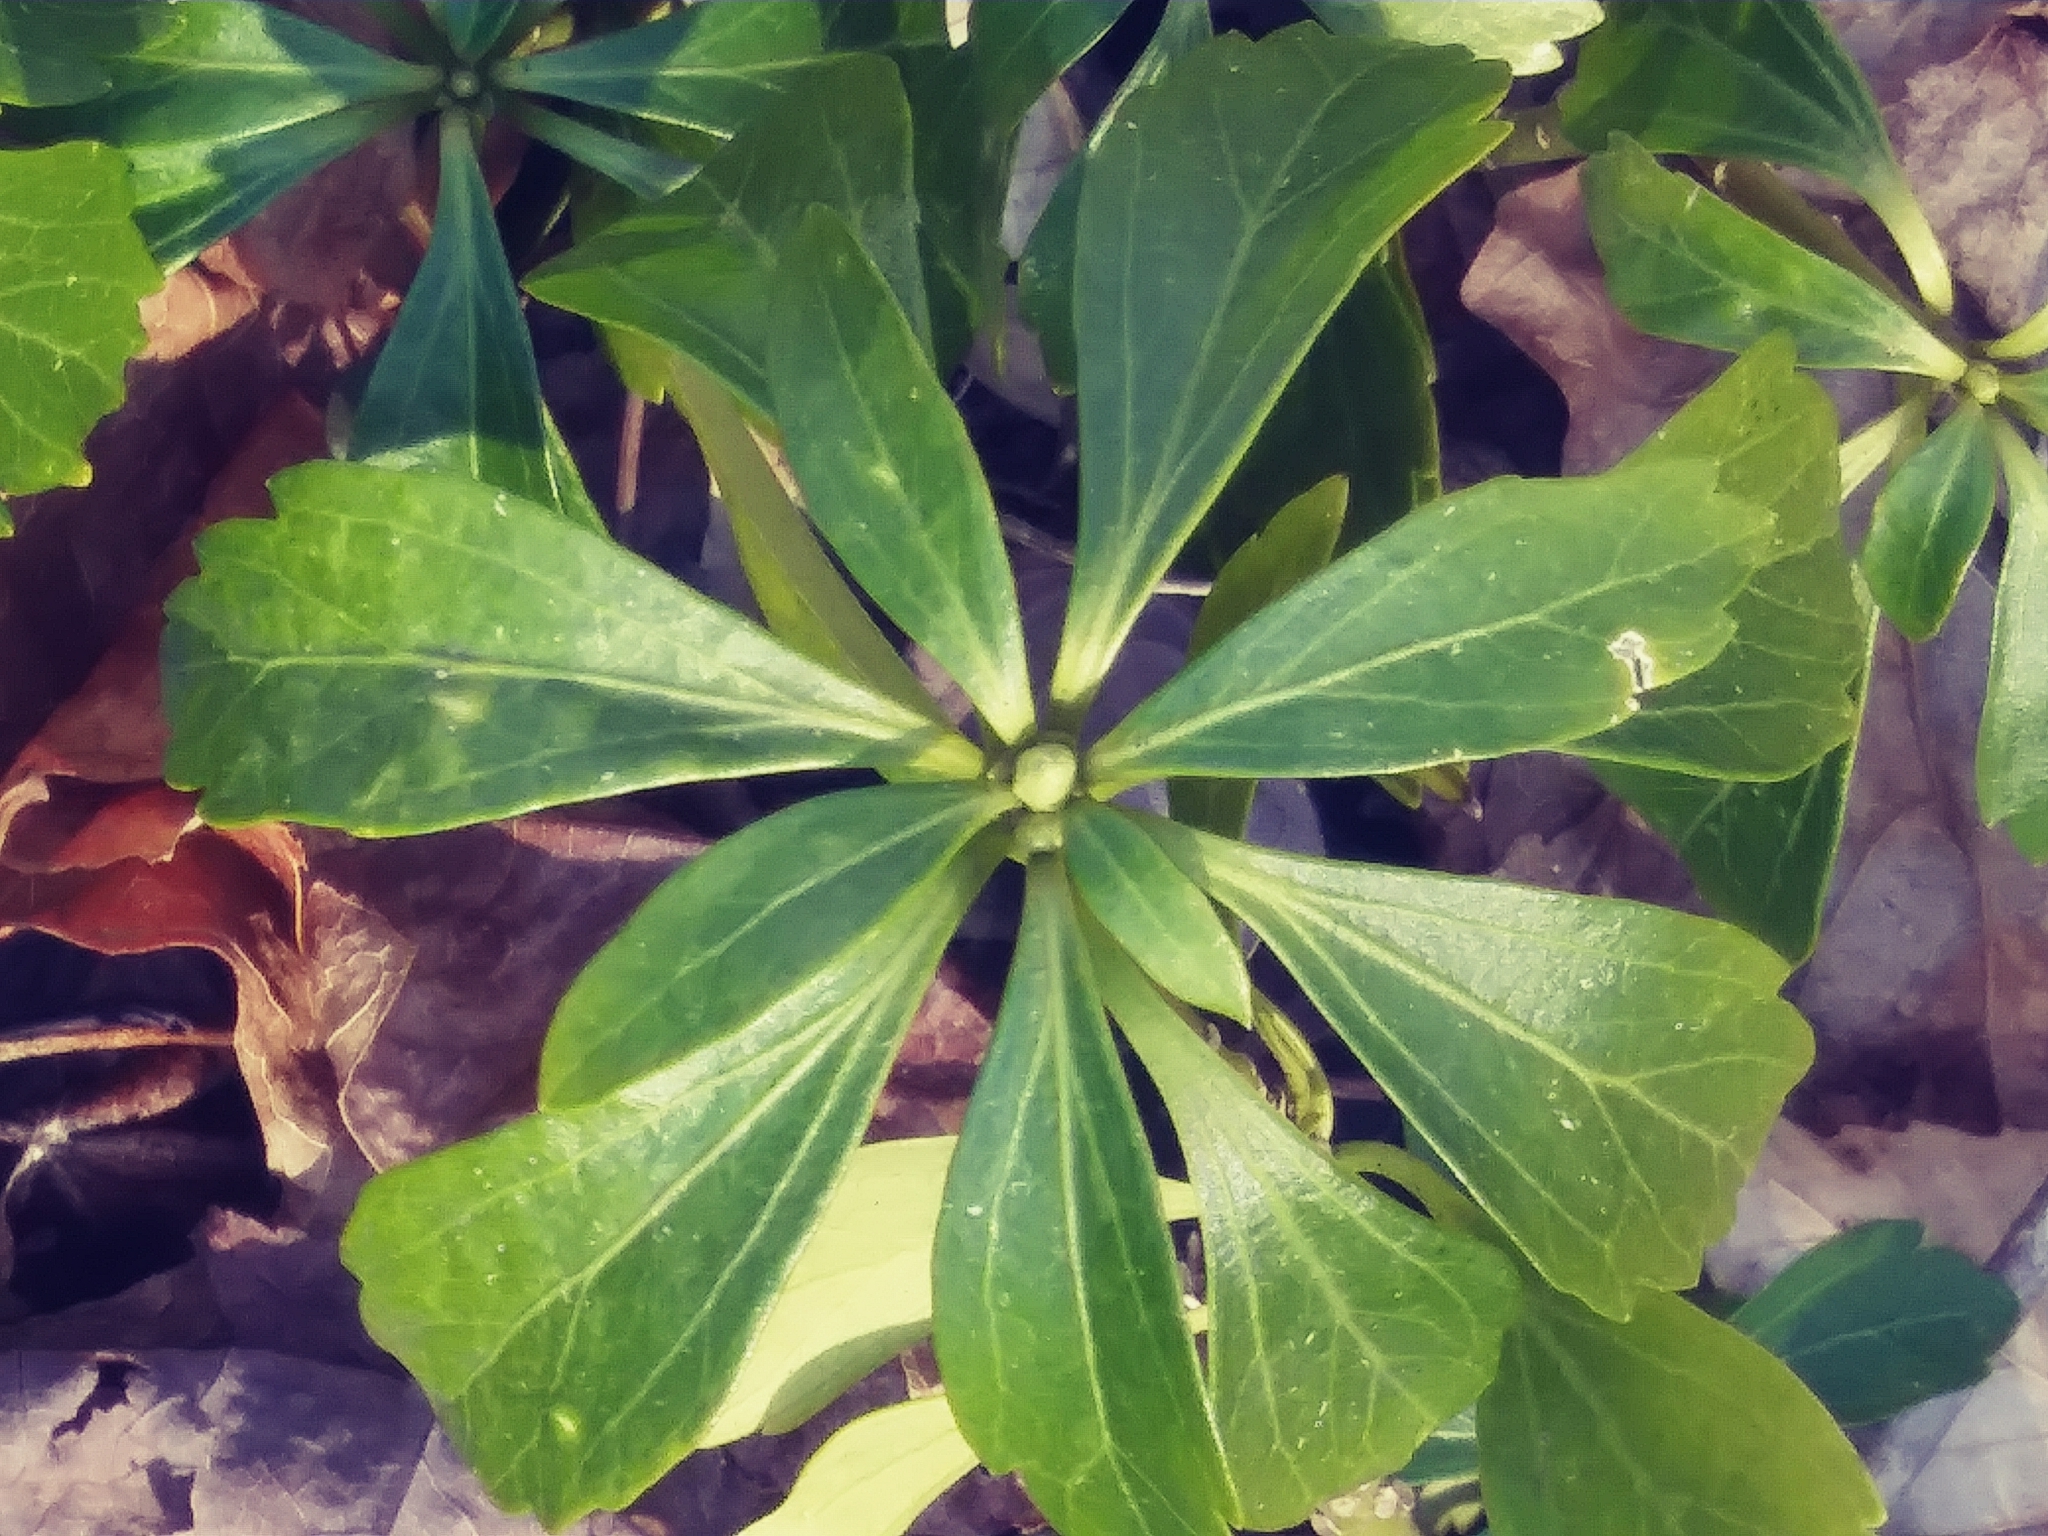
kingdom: Plantae
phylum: Tracheophyta
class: Magnoliopsida
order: Buxales
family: Buxaceae
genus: Pachysandra
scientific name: Pachysandra terminalis
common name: Japanese pachysandra
